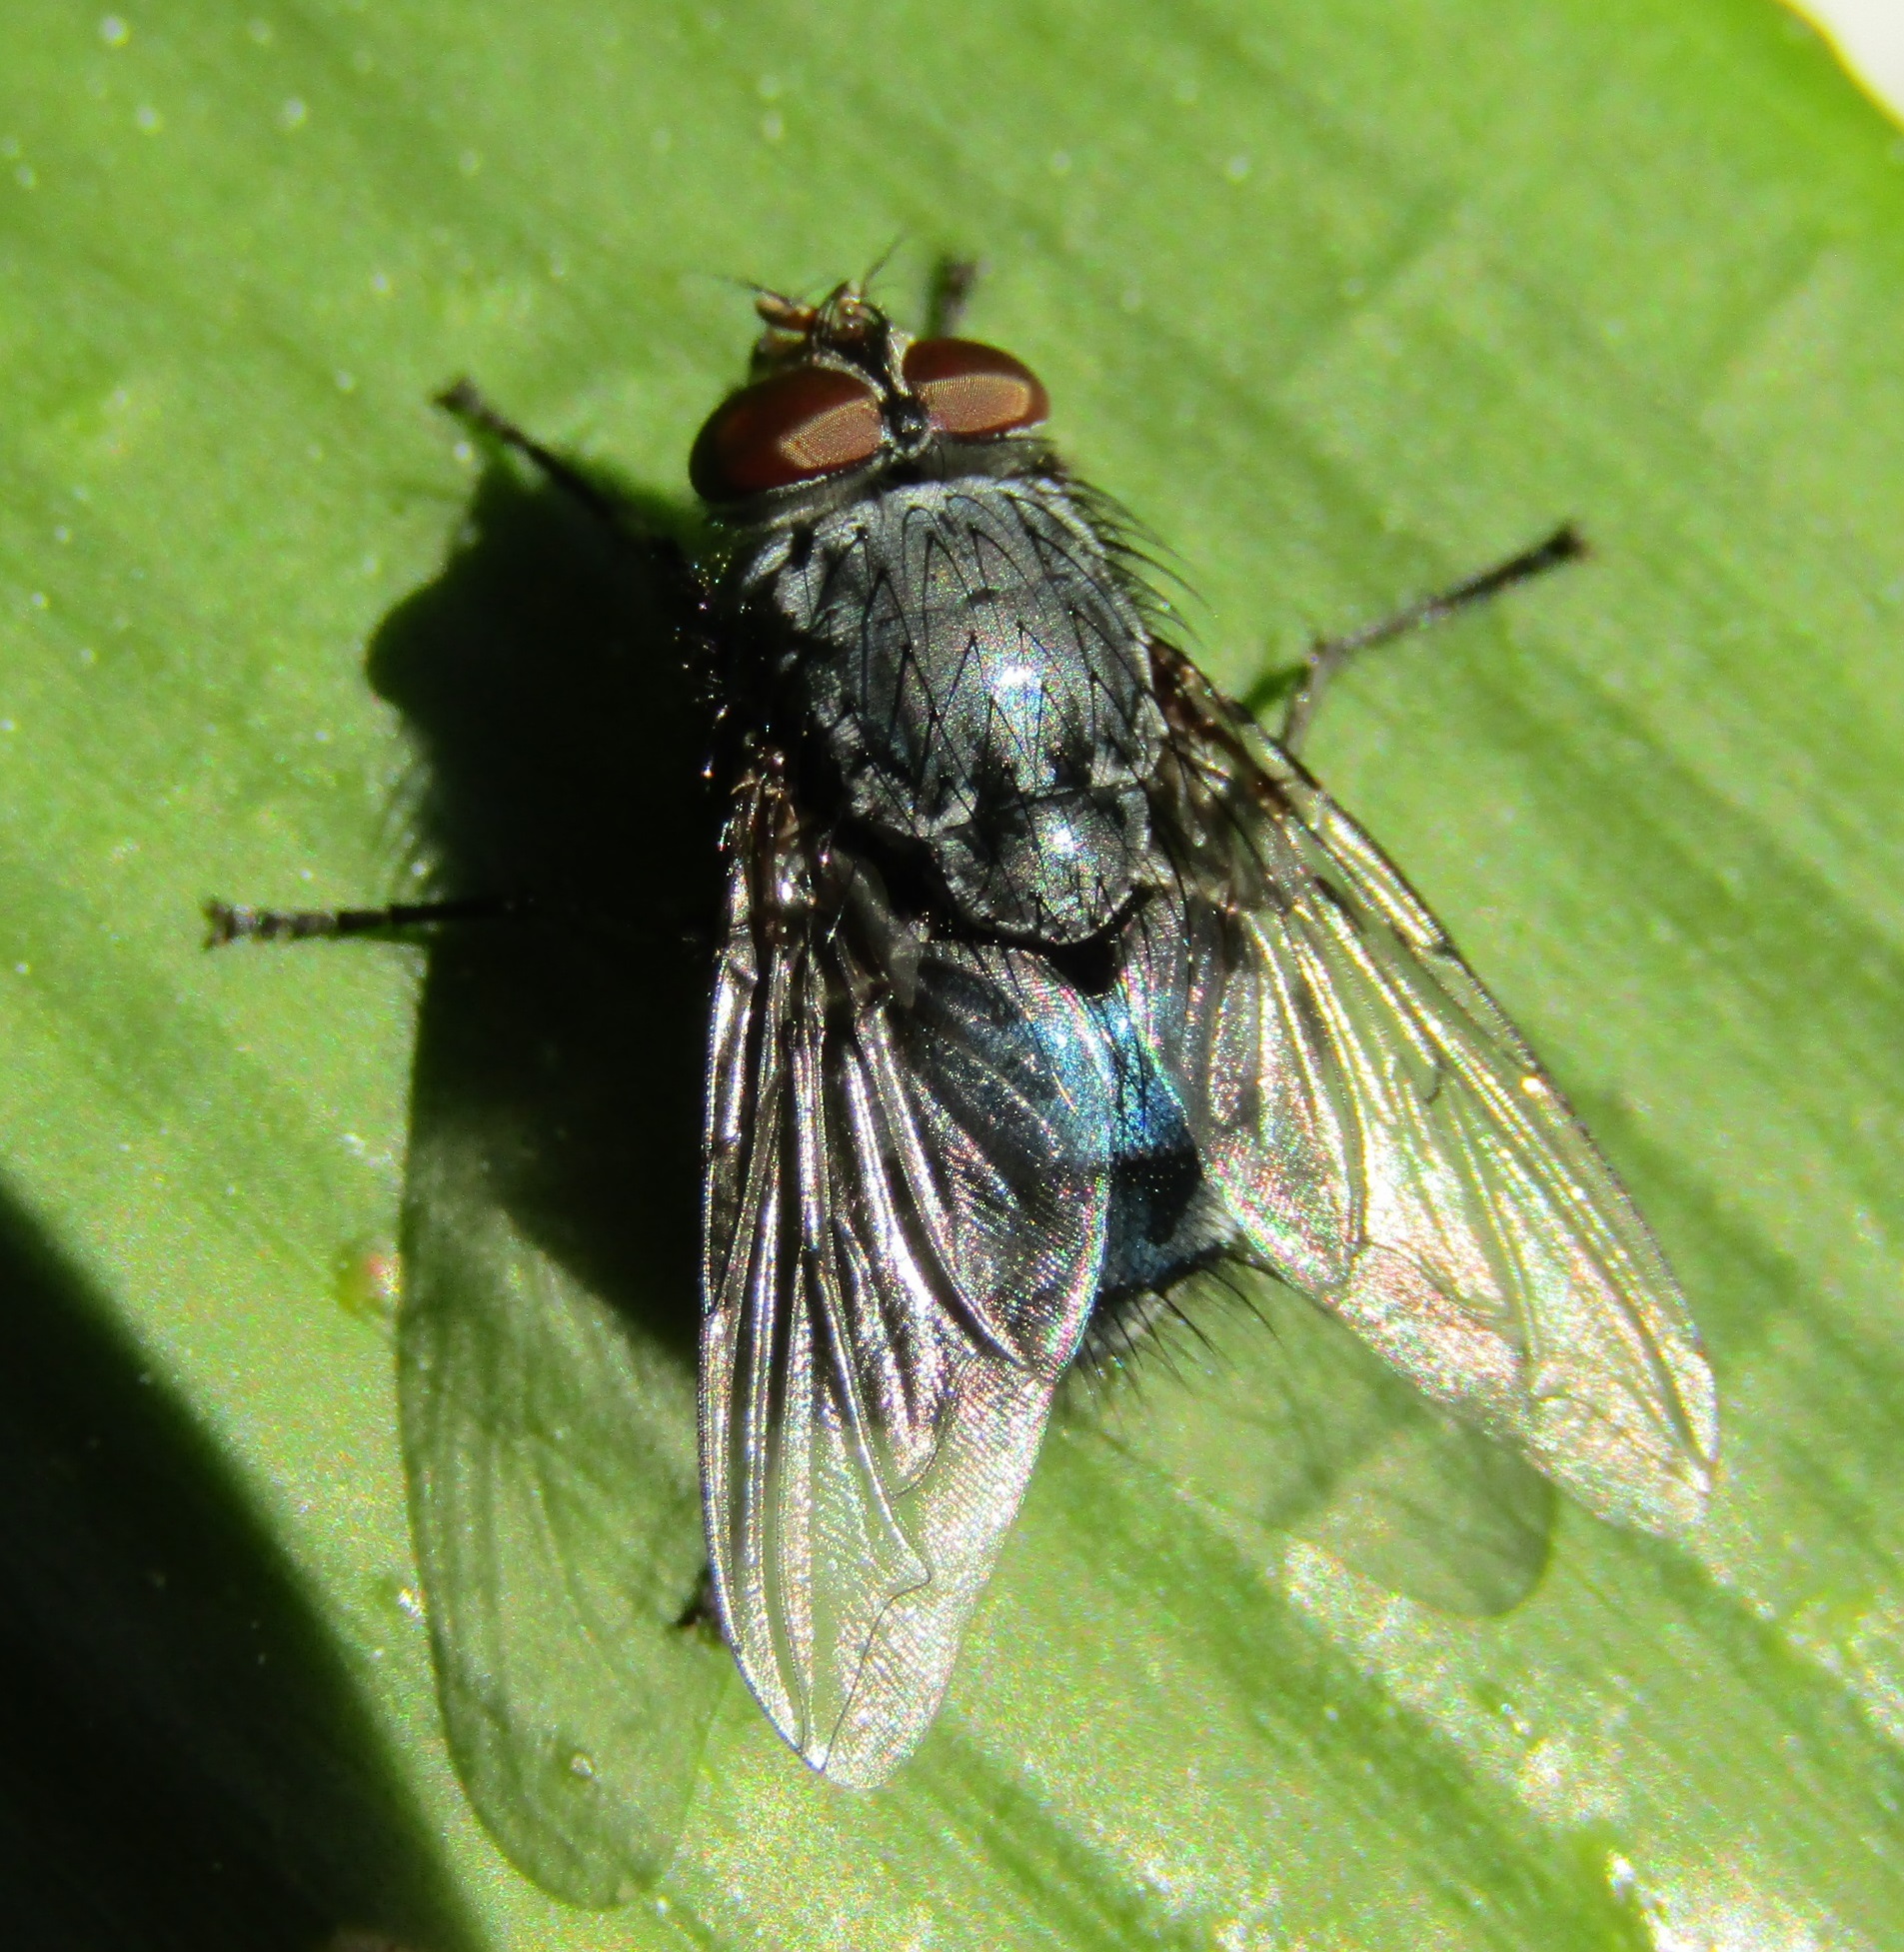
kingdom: Animalia
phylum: Arthropoda
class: Insecta
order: Diptera
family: Calliphoridae
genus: Calliphora
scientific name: Calliphora vicina
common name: Common blow flie
